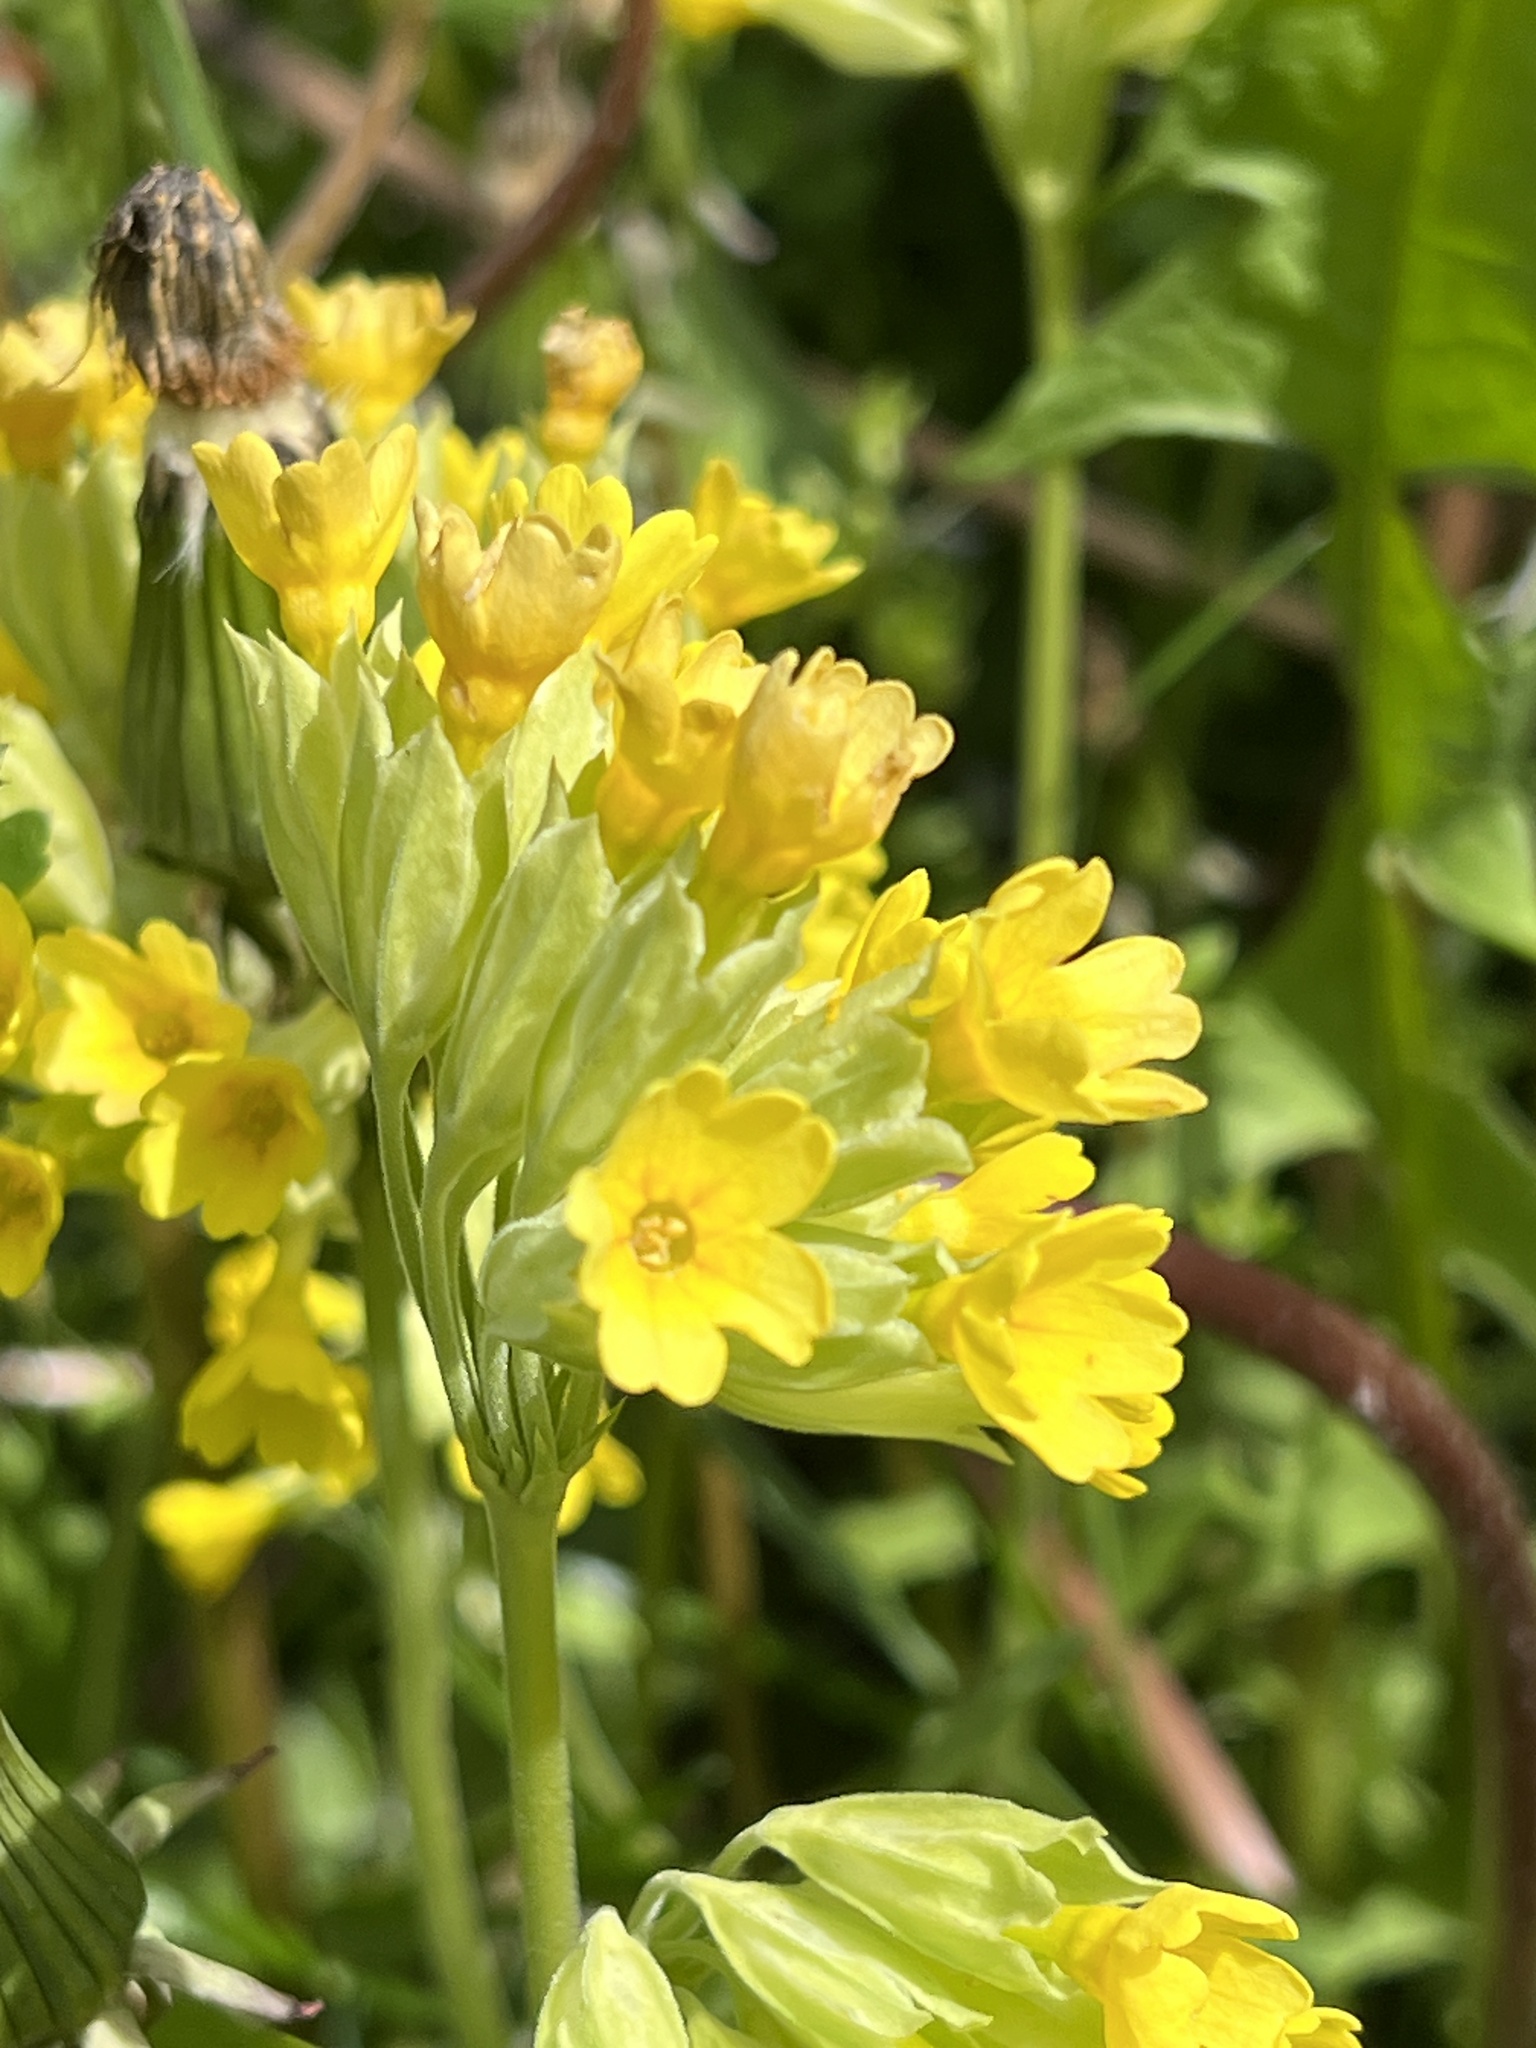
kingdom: Plantae
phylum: Tracheophyta
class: Magnoliopsida
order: Ericales
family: Primulaceae
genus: Primula
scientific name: Primula veris
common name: Cowslip
